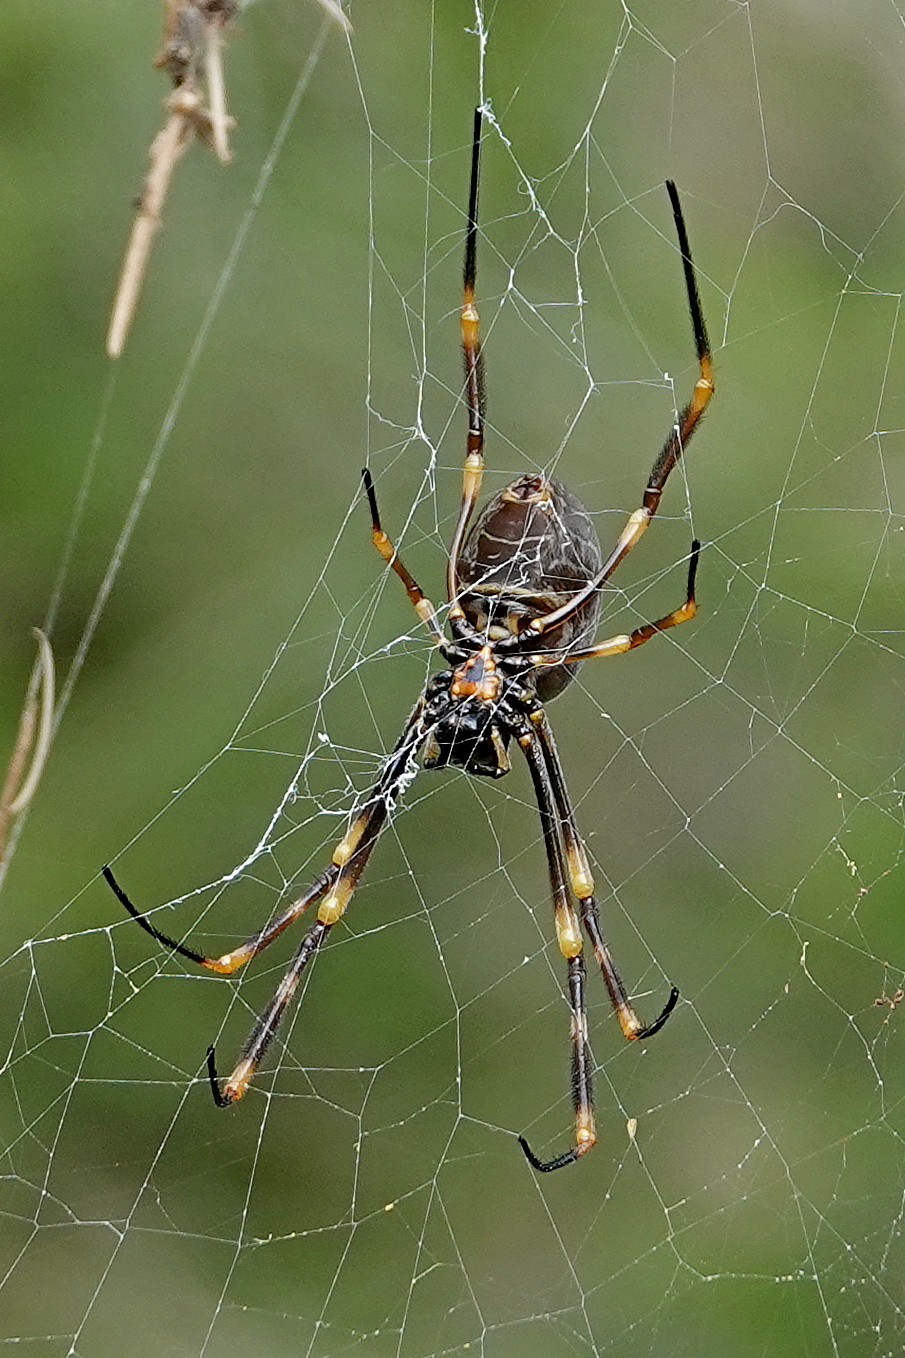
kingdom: Animalia
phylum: Arthropoda
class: Arachnida
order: Araneae
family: Araneidae
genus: Trichonephila
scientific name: Trichonephila plumipes
